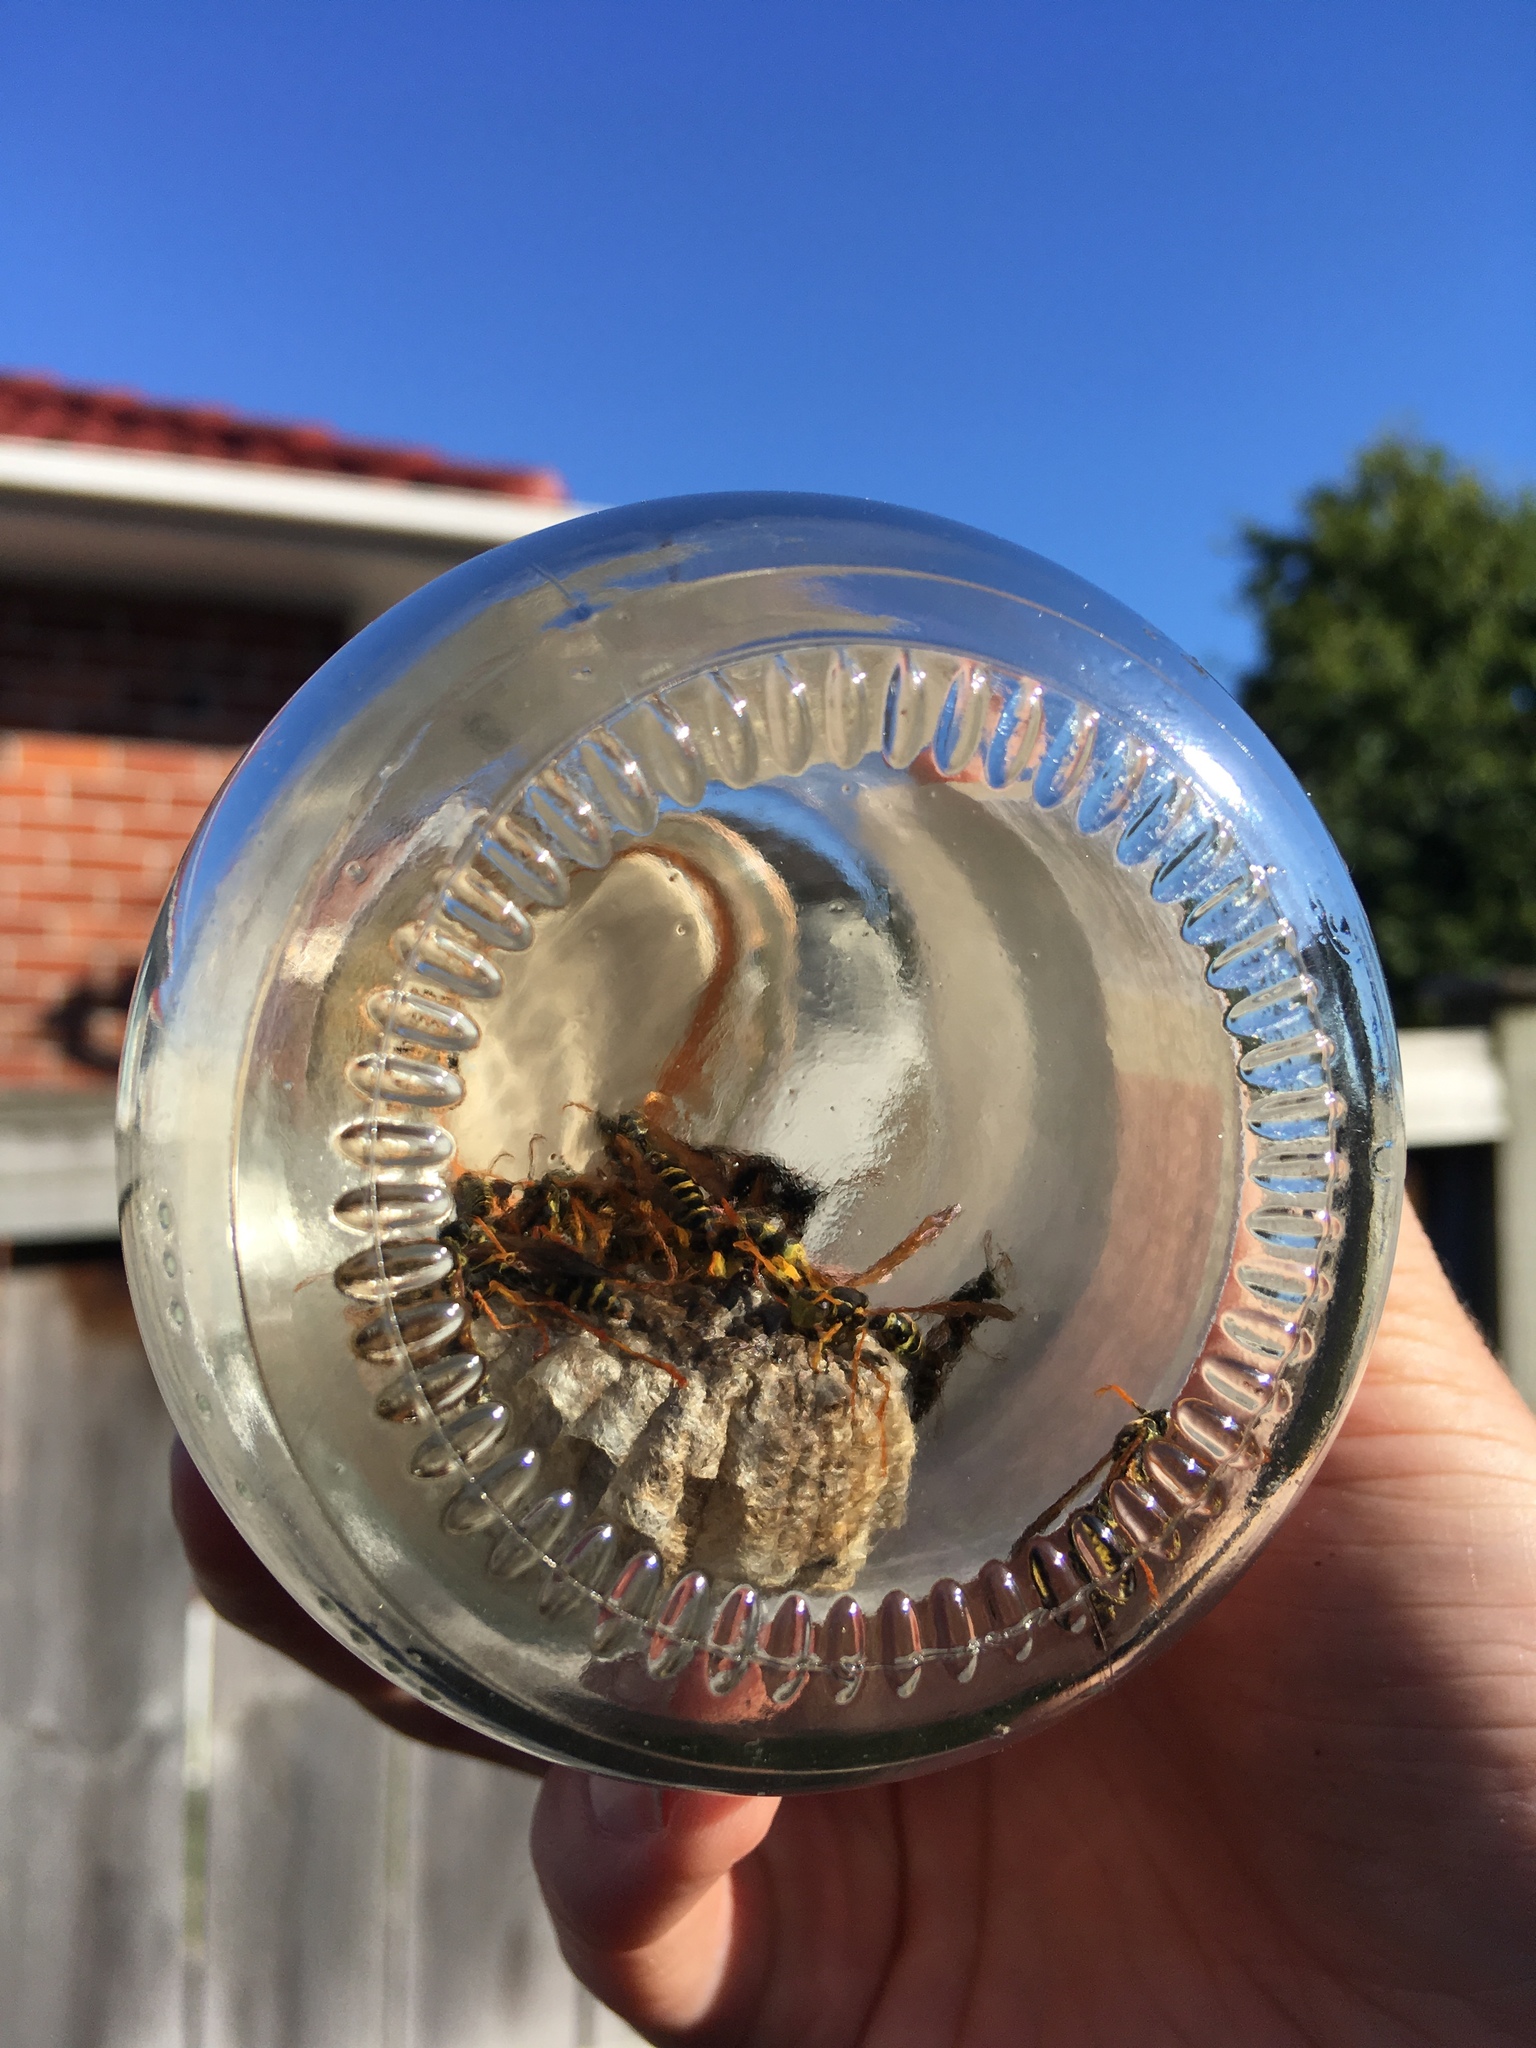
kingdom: Animalia
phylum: Arthropoda
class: Insecta
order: Hymenoptera
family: Eumenidae
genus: Polistes
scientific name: Polistes chinensis
